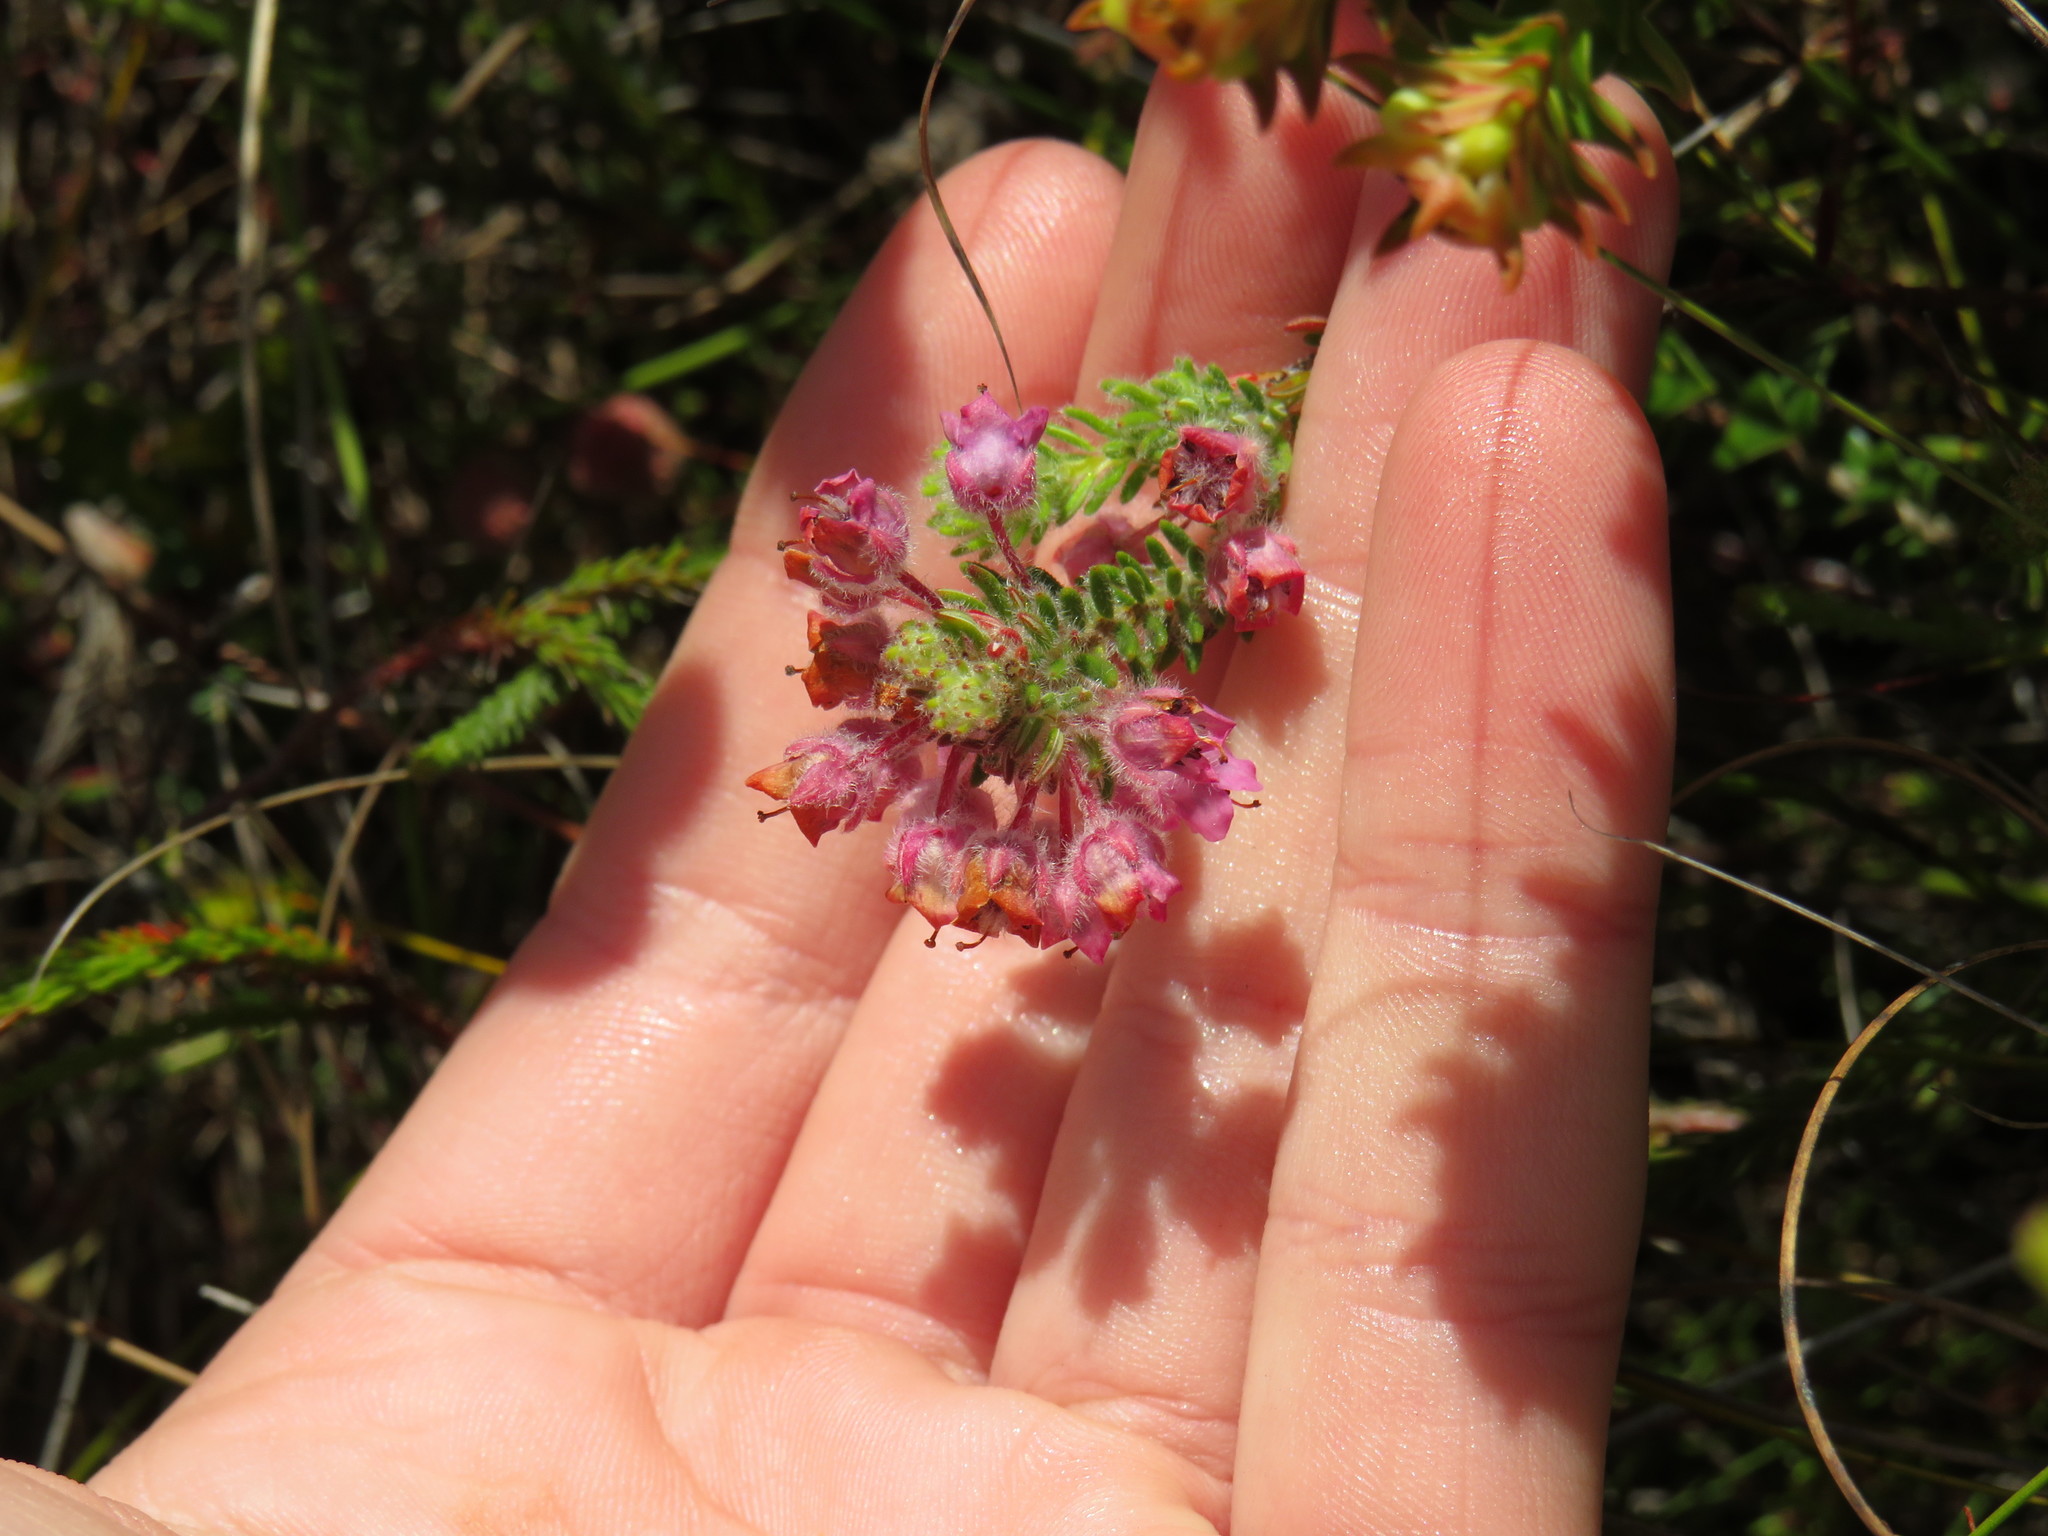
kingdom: Plantae
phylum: Tracheophyta
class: Magnoliopsida
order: Ericales
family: Ericaceae
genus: Erica
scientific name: Erica amoena
